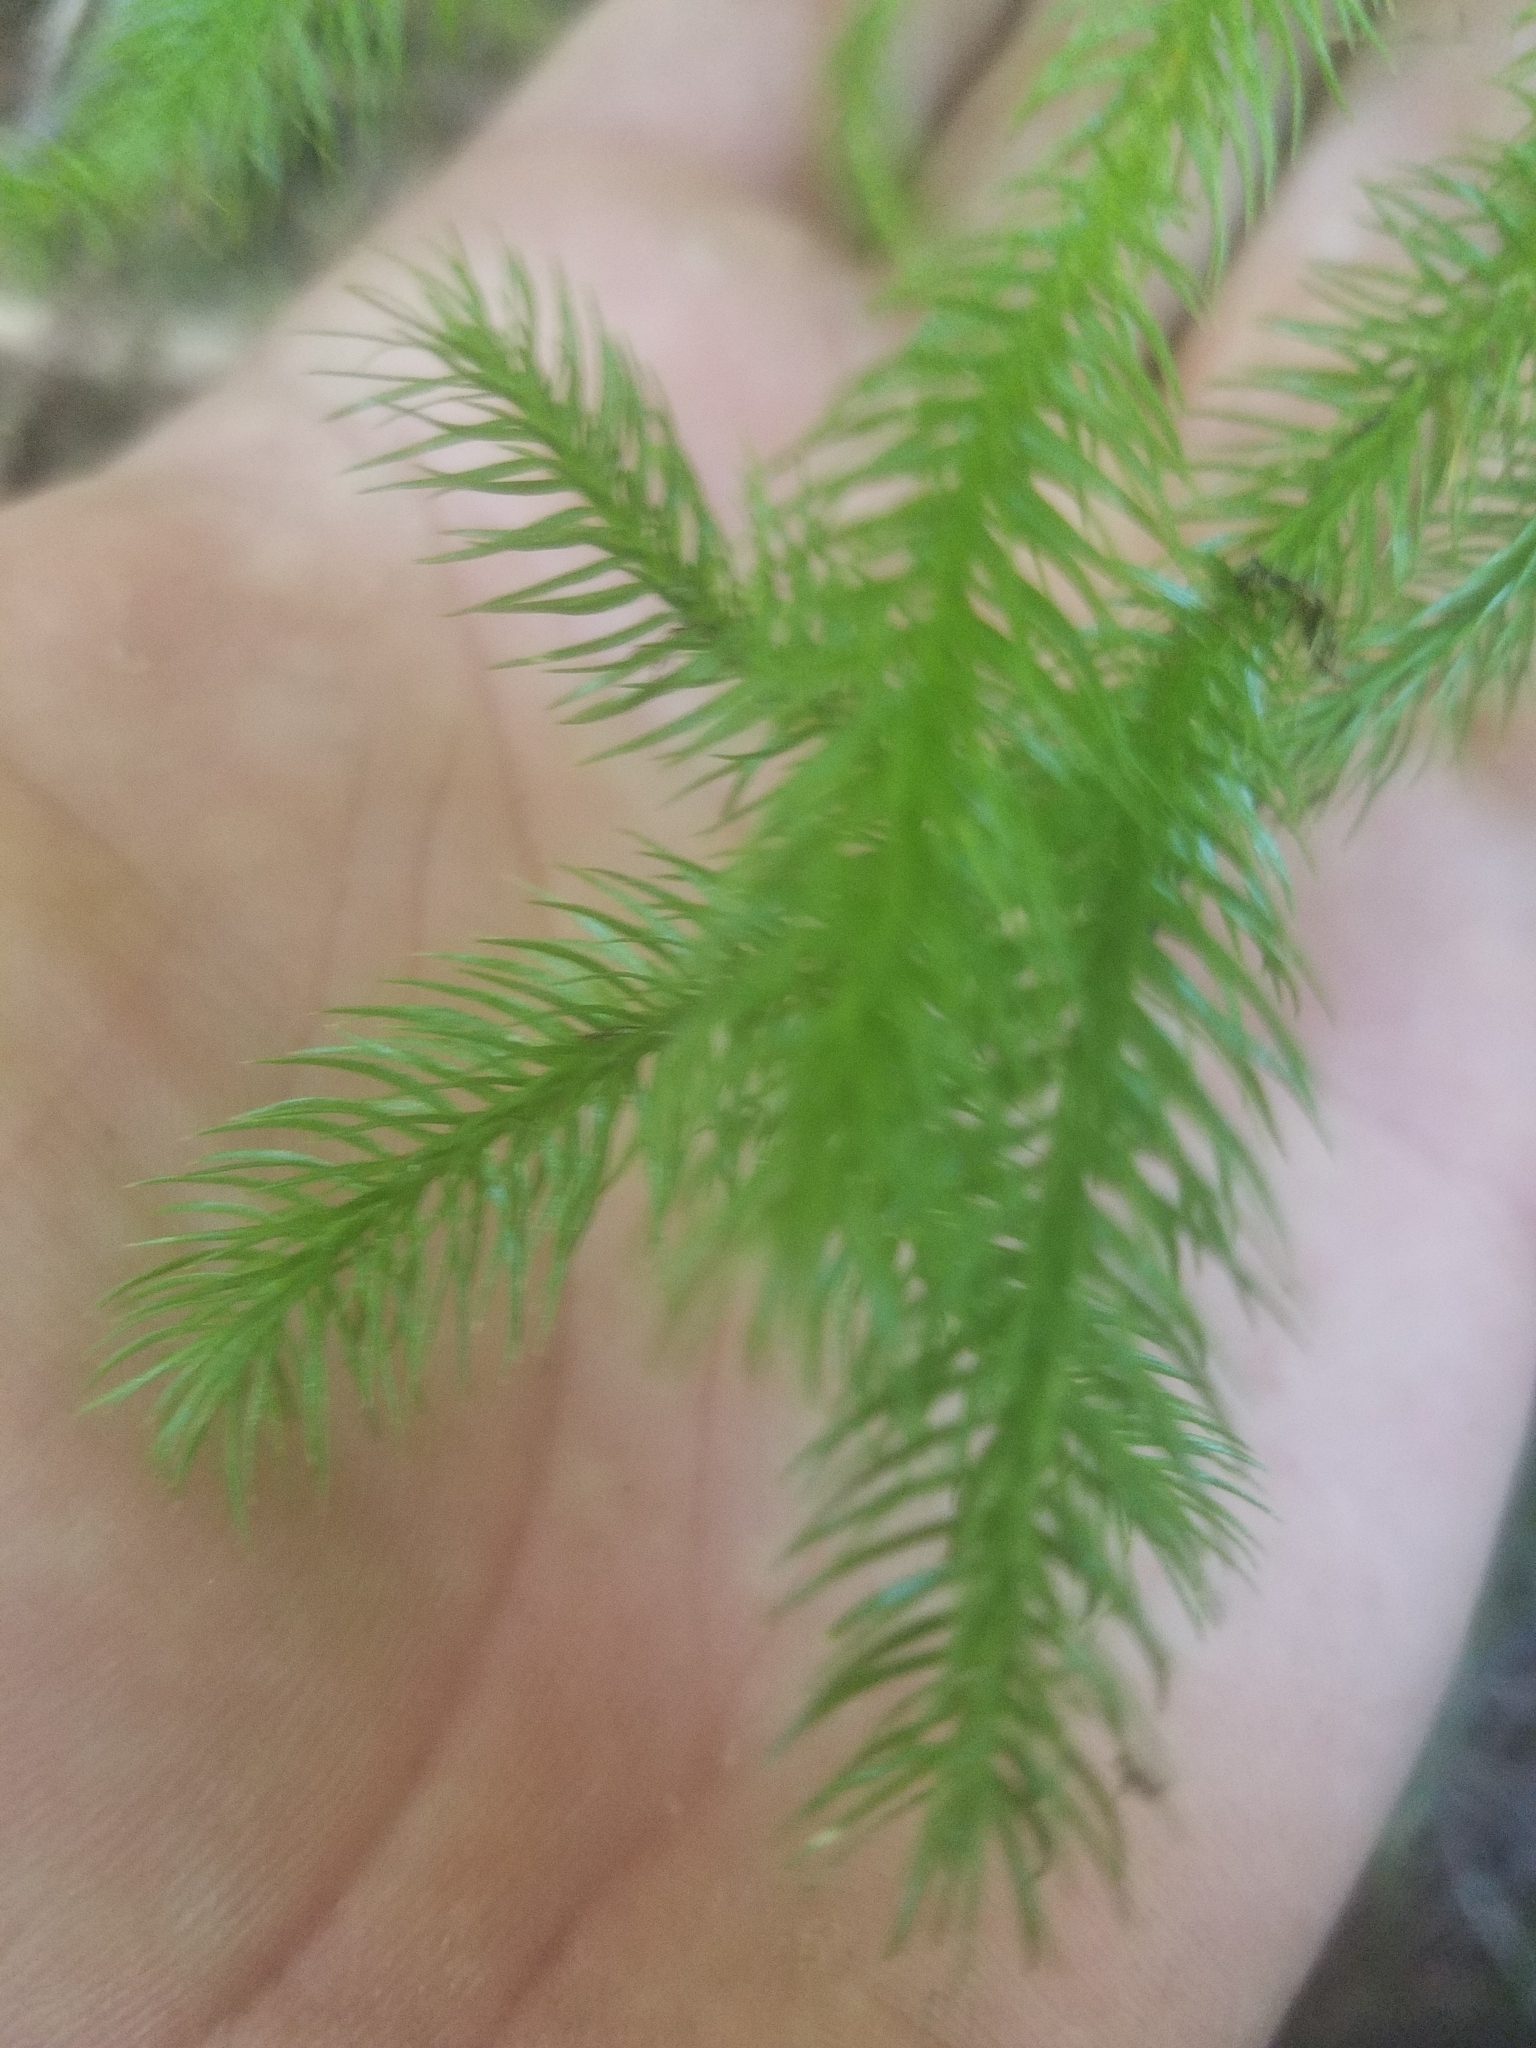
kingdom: Plantae
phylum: Tracheophyta
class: Lycopodiopsida
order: Lycopodiales
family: Lycopodiaceae
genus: Lycopodium
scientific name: Lycopodium clavatum
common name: Stag's-horn clubmoss
